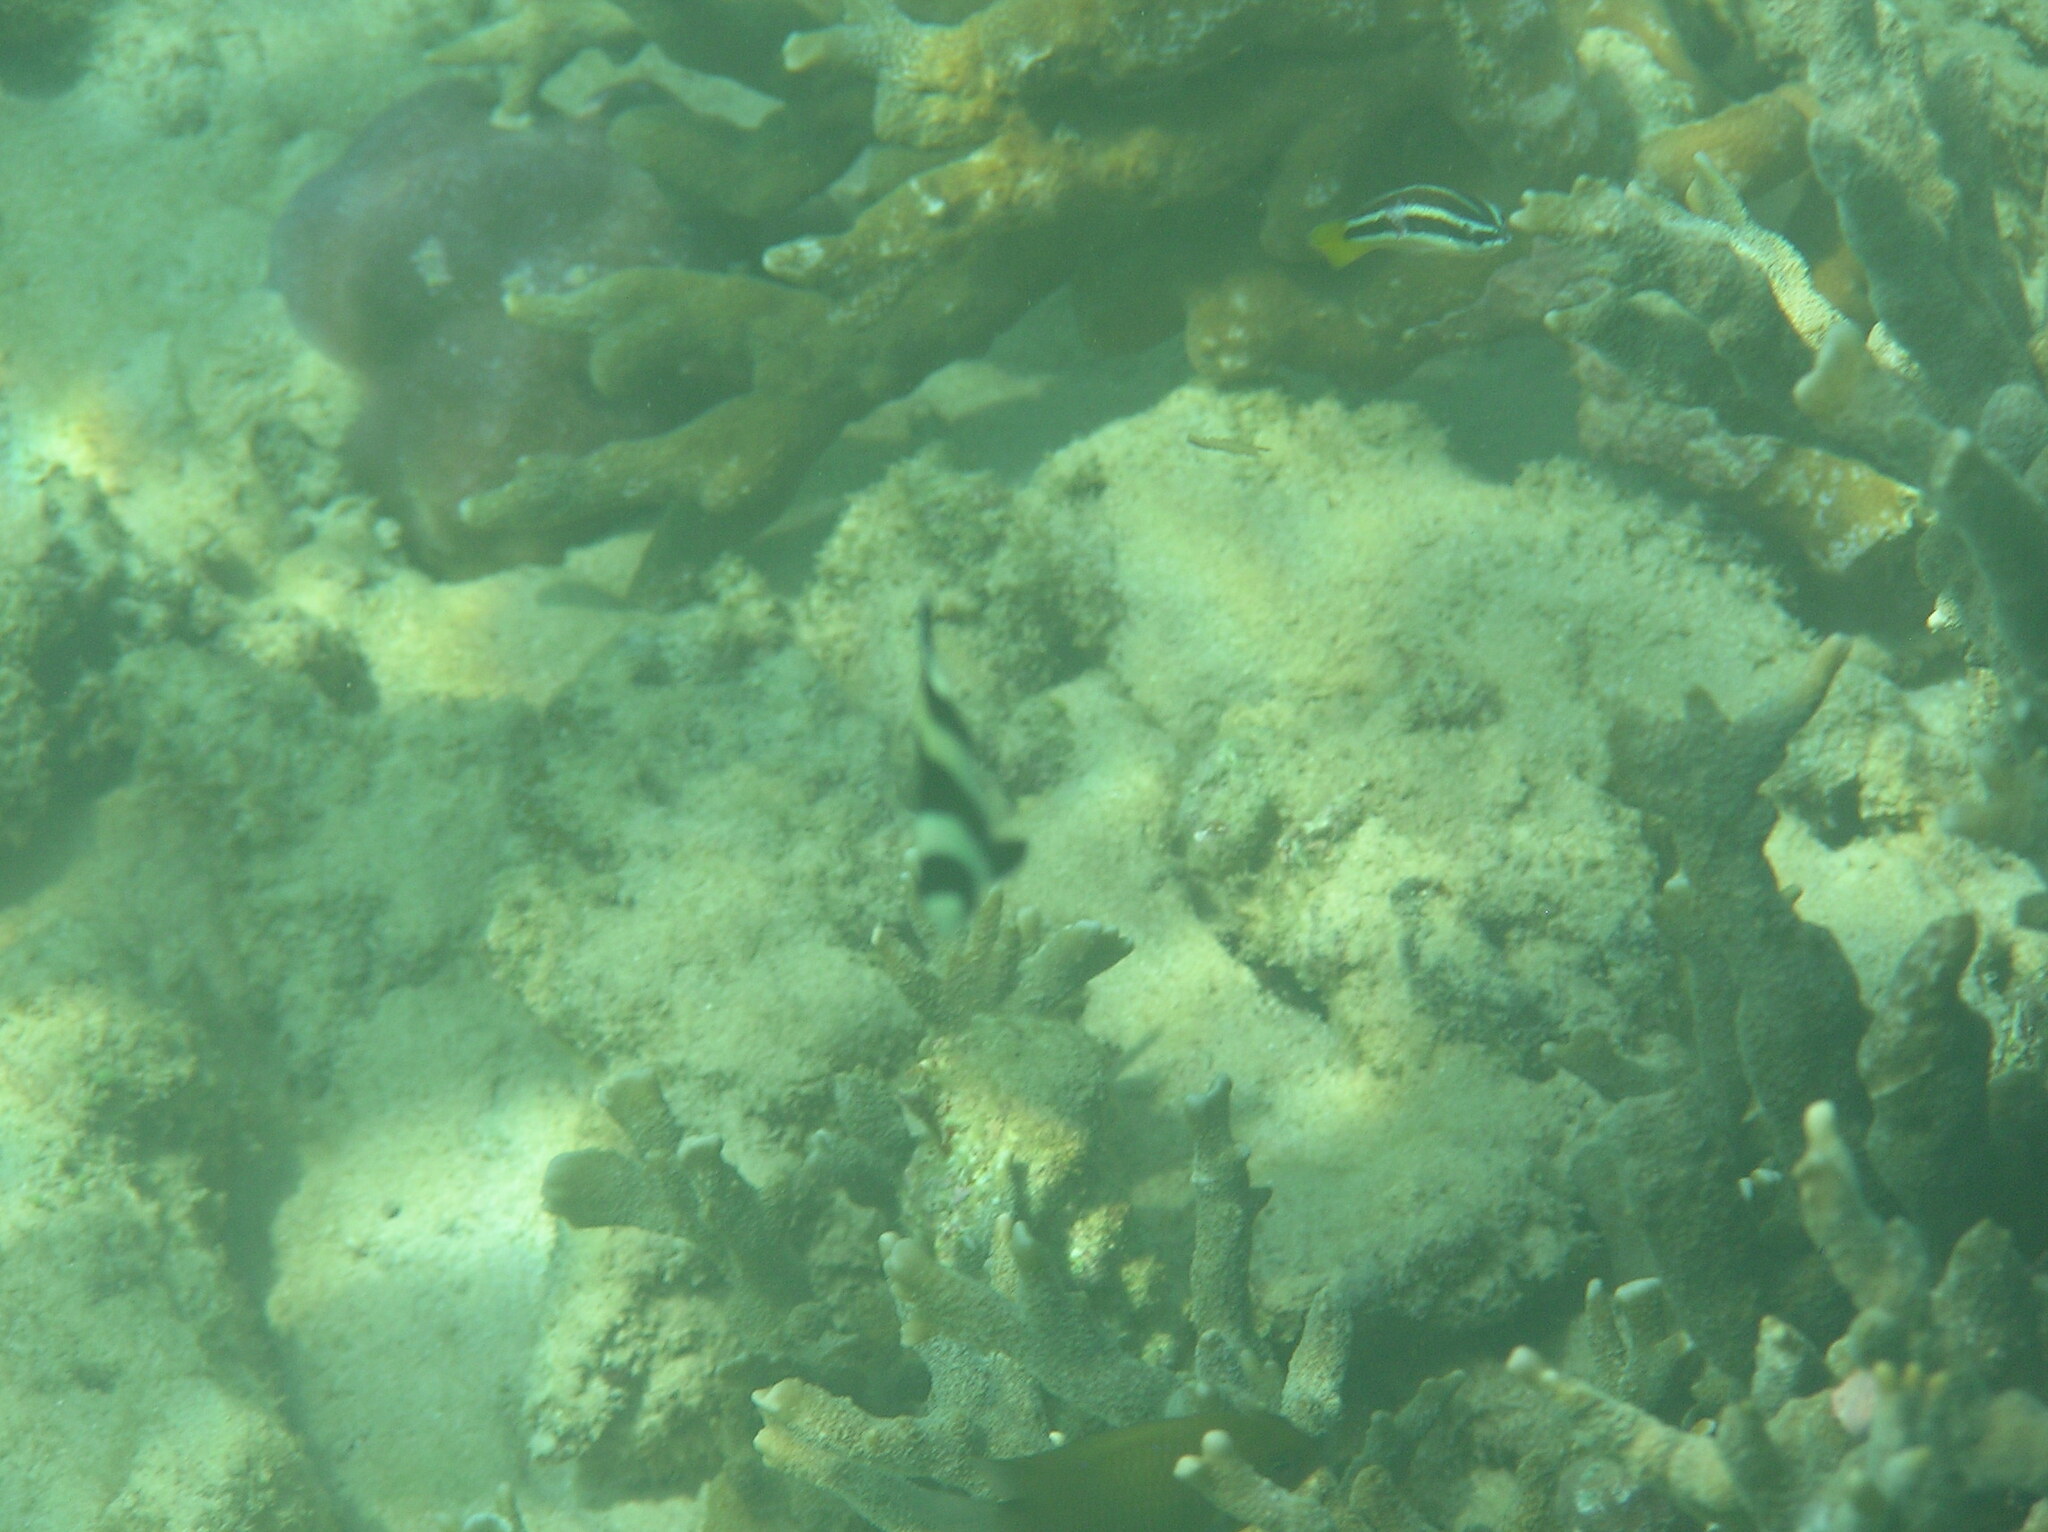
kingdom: Animalia
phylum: Chordata
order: Perciformes
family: Labridae
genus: Diproctacanthus
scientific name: Diproctacanthus xanthurus
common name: Wandering cleaner wrasse
